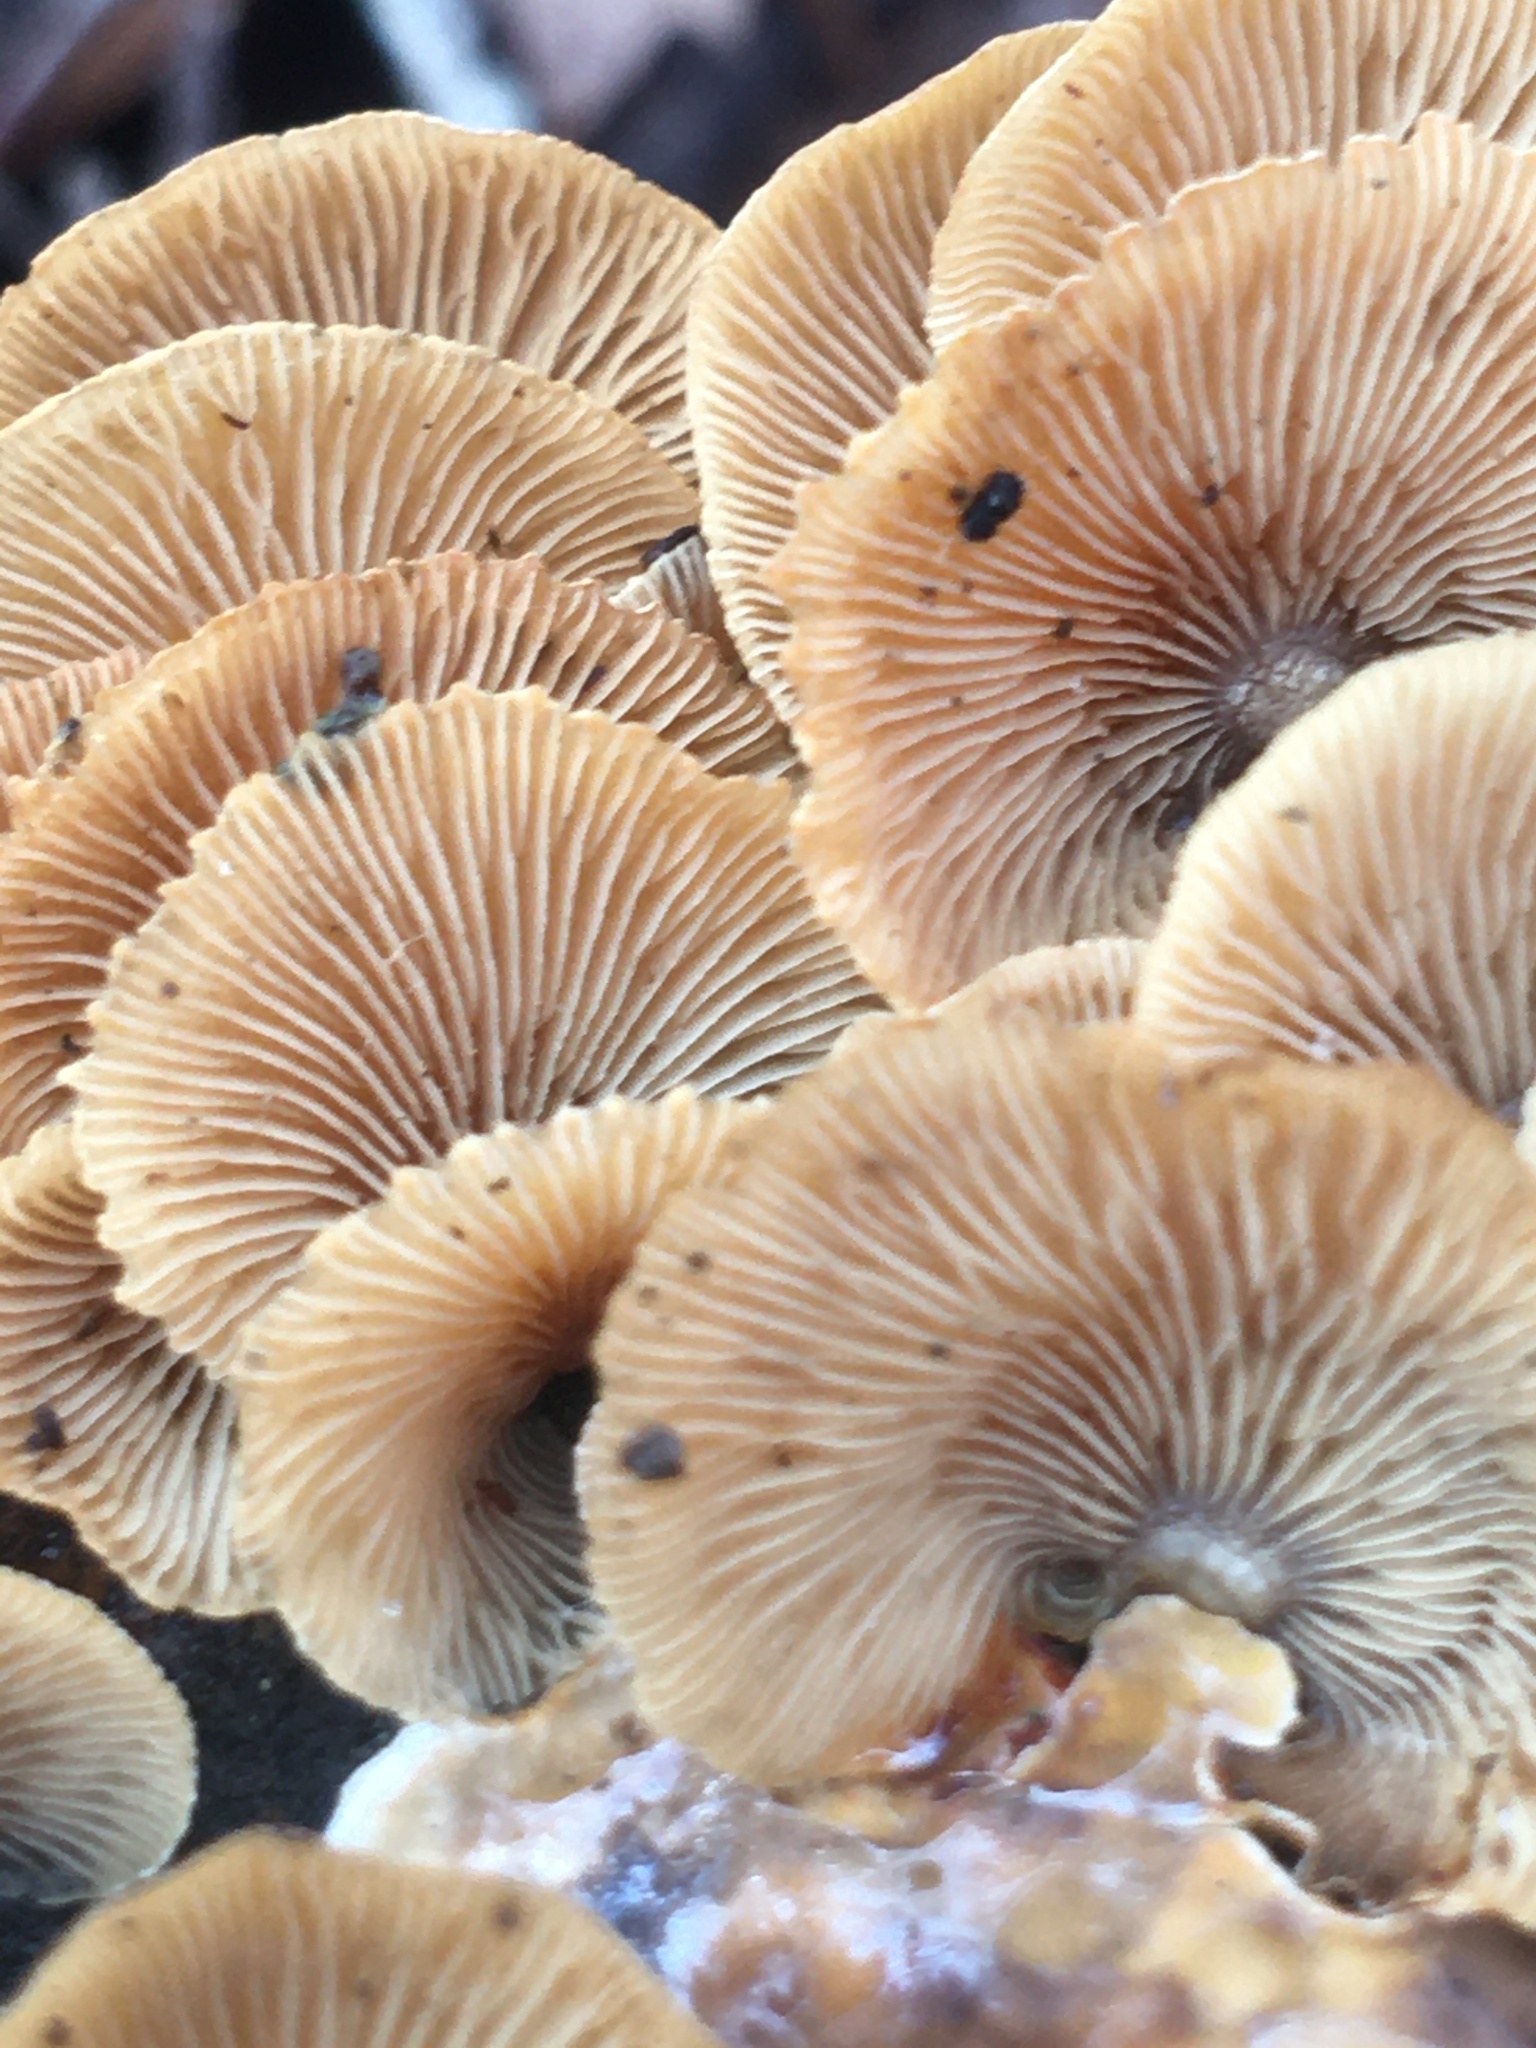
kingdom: Fungi
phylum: Basidiomycota
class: Agaricomycetes
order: Agaricales
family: Mycenaceae
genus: Panellus
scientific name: Panellus stipticus
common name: Bitter oysterling
